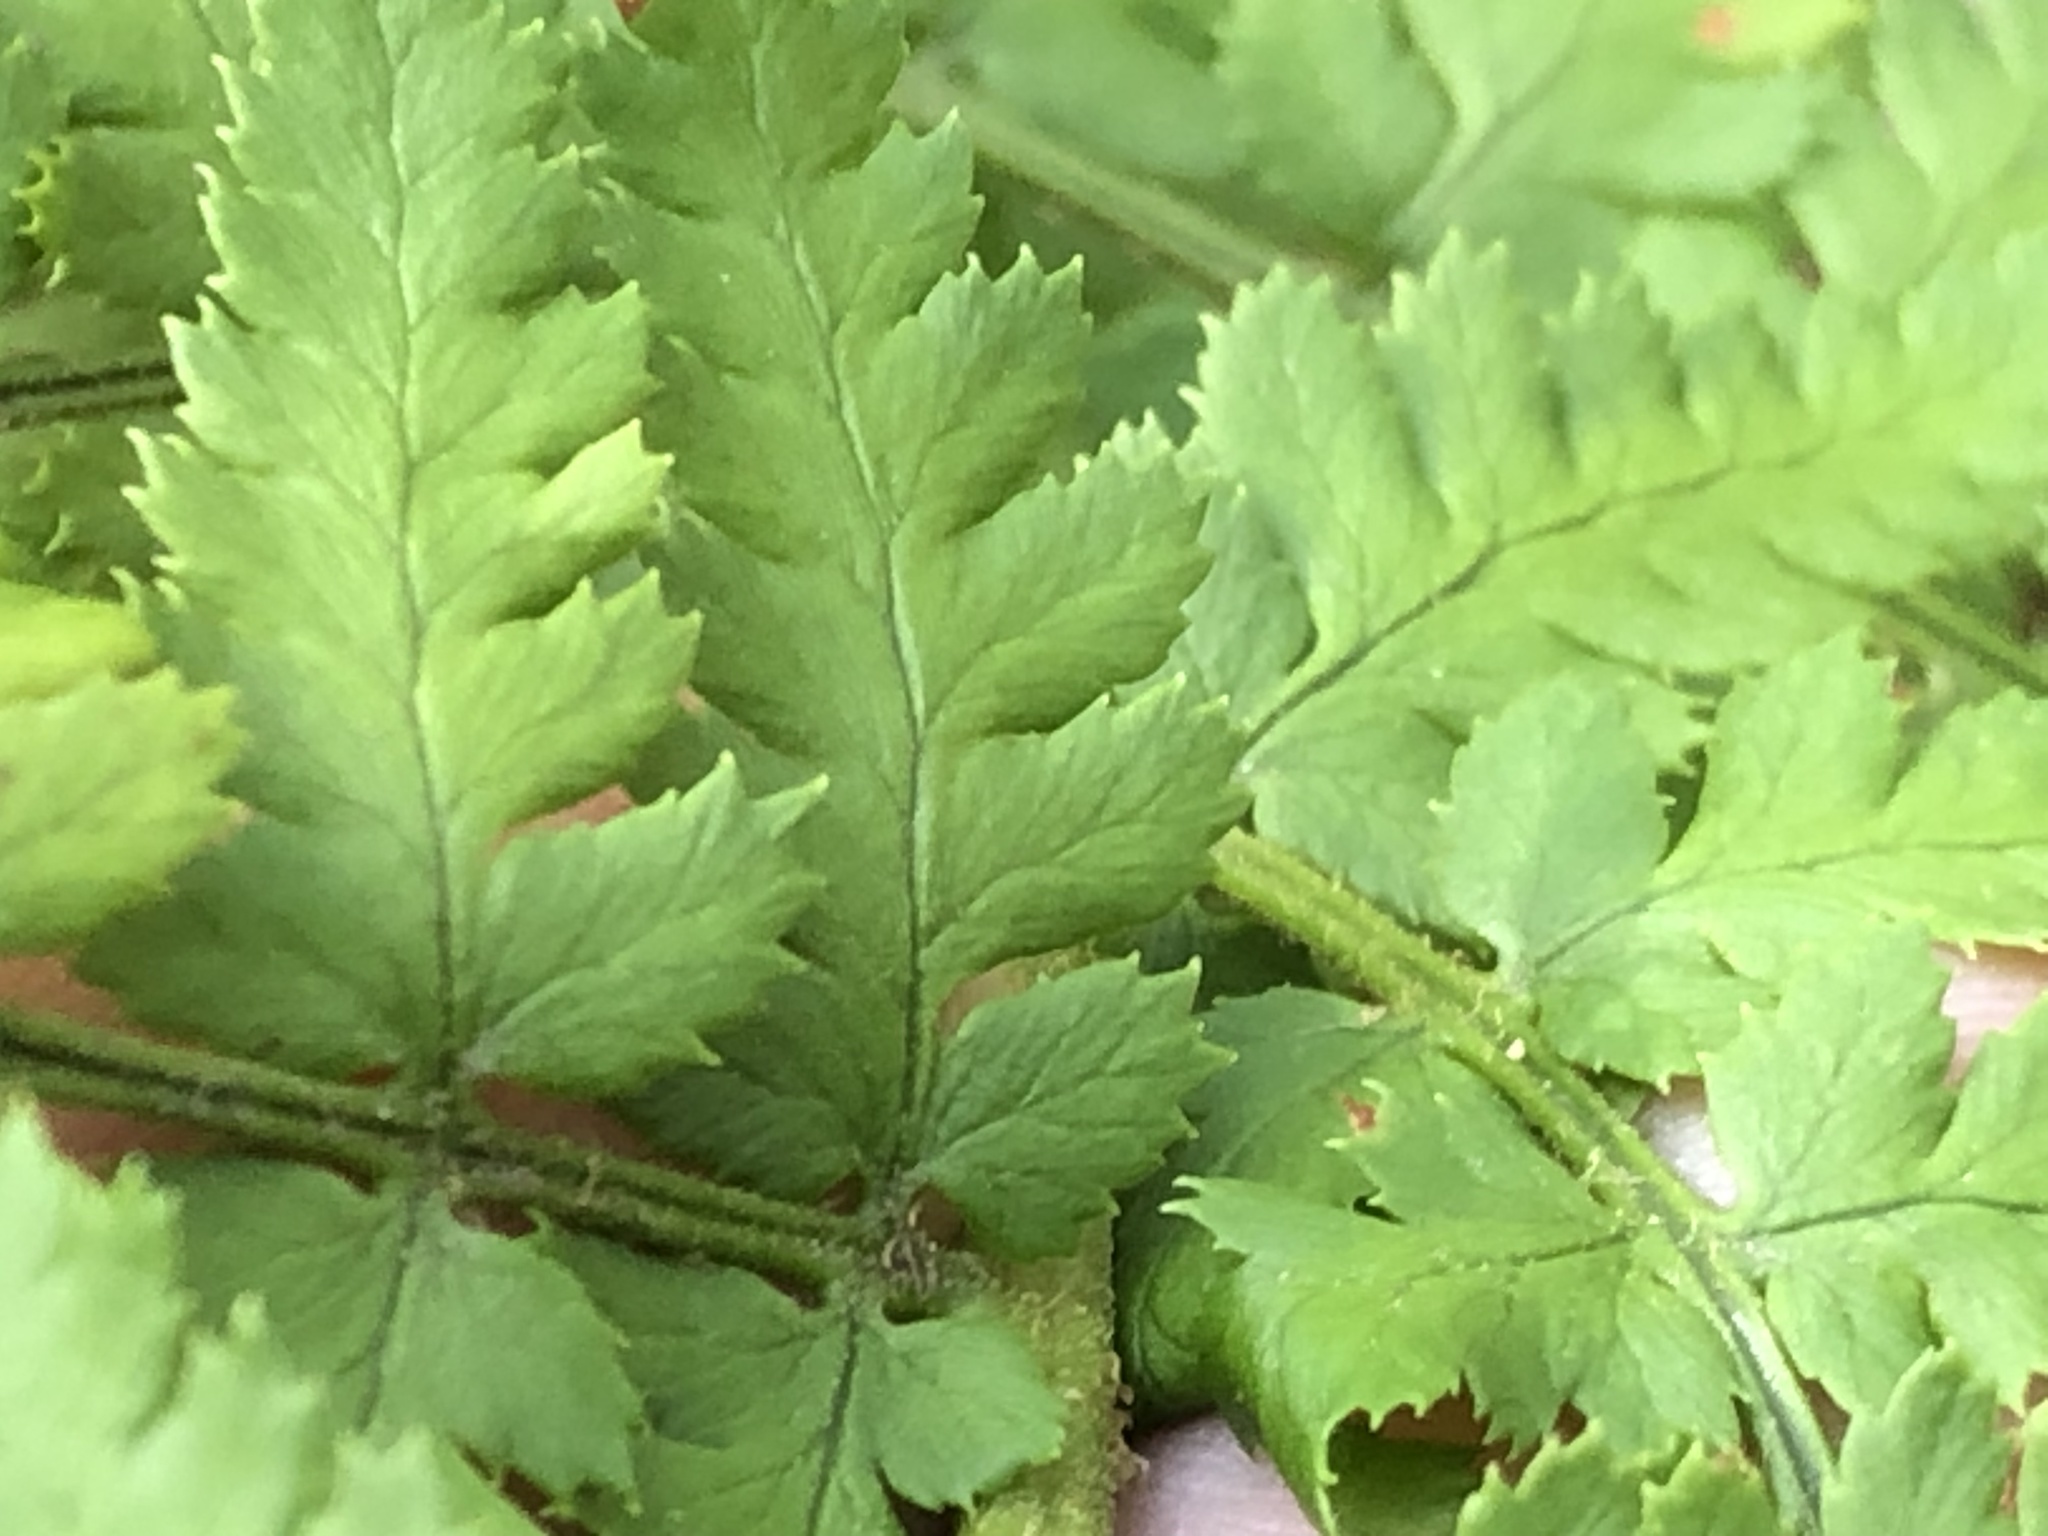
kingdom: Plantae
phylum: Tracheophyta
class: Polypodiopsida
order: Polypodiales
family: Dryopteridaceae
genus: Dryopteris
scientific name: Dryopteris arguta
